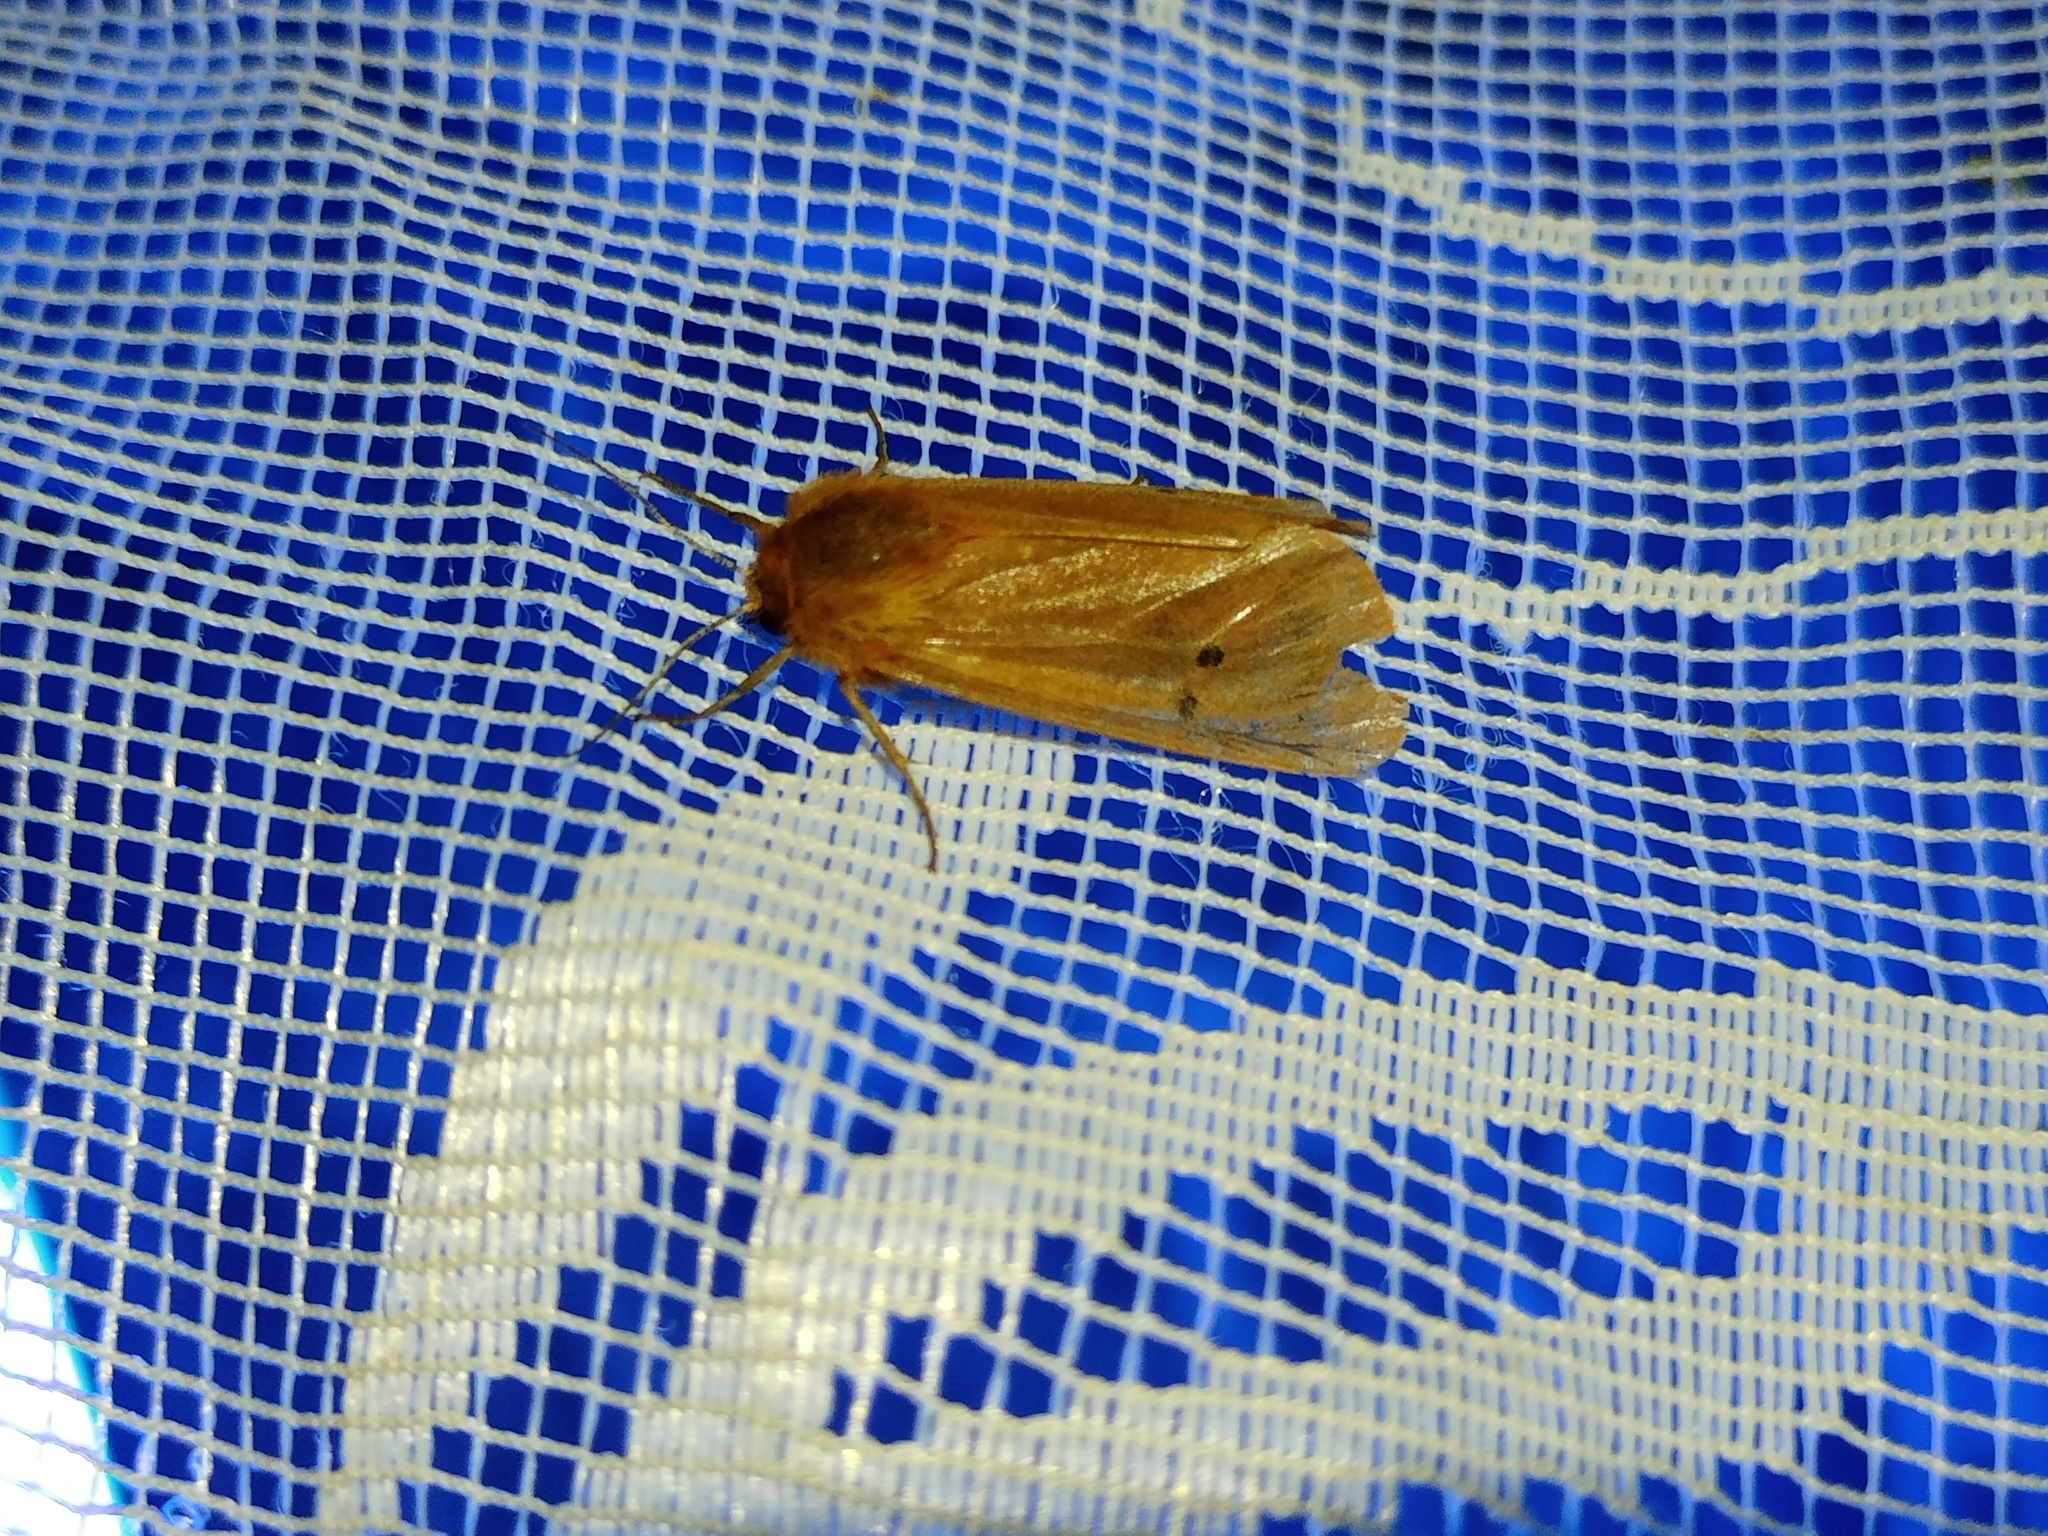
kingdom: Animalia
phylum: Arthropoda
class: Insecta
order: Lepidoptera
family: Erebidae
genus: Phragmatobia
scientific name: Phragmatobia fuliginosa
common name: Ruby tiger
